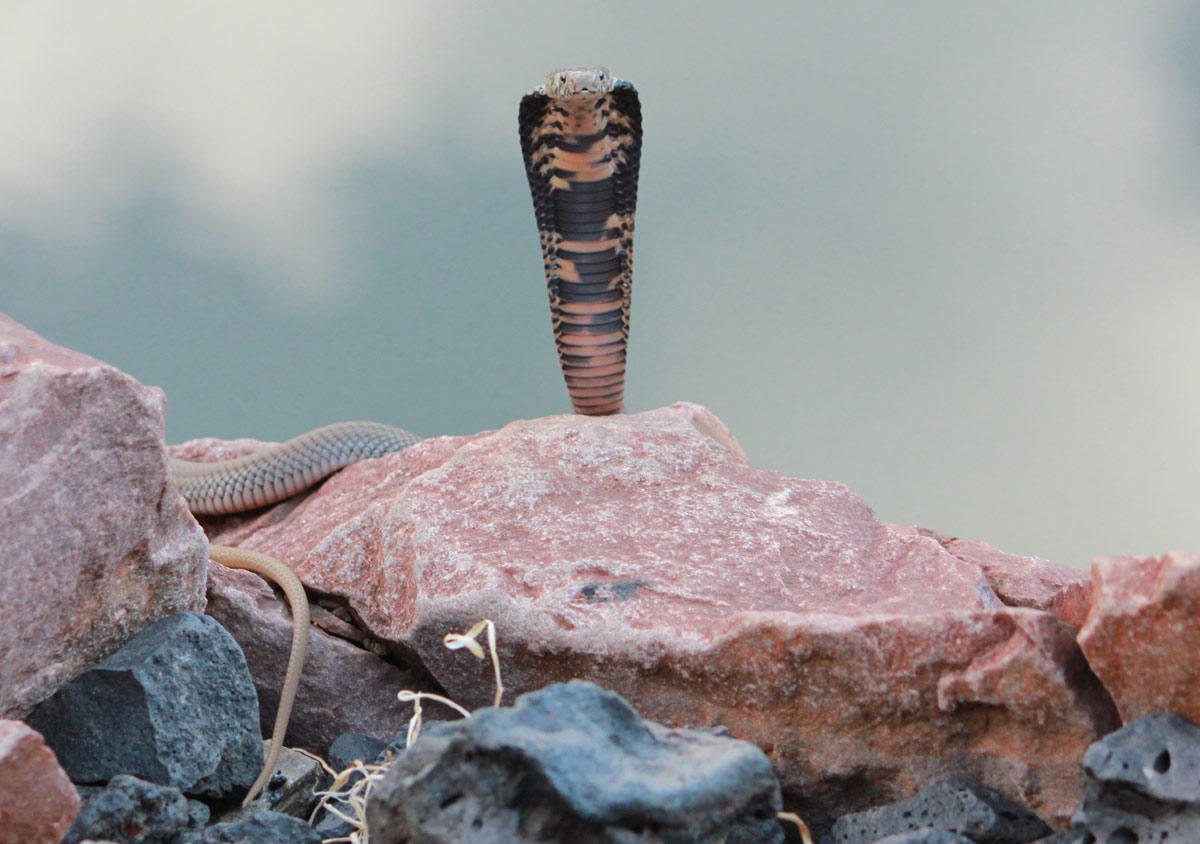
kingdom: Animalia
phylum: Chordata
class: Squamata
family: Elapidae
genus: Naja
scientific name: Naja mossambica
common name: Mozambique spitting cobra
